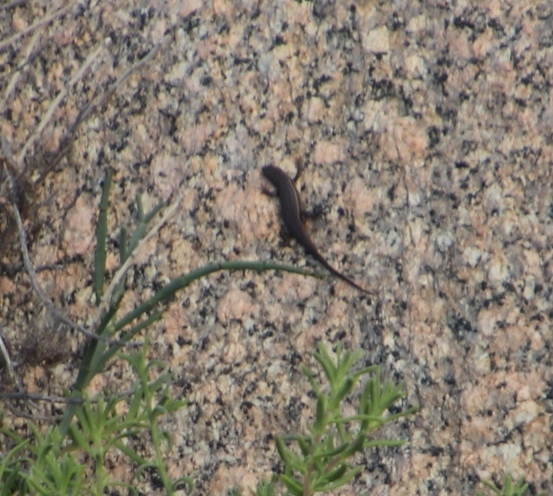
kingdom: Animalia
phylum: Chordata
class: Squamata
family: Scincidae
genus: Trachylepis
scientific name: Trachylepis variegata
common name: Variegated skink
